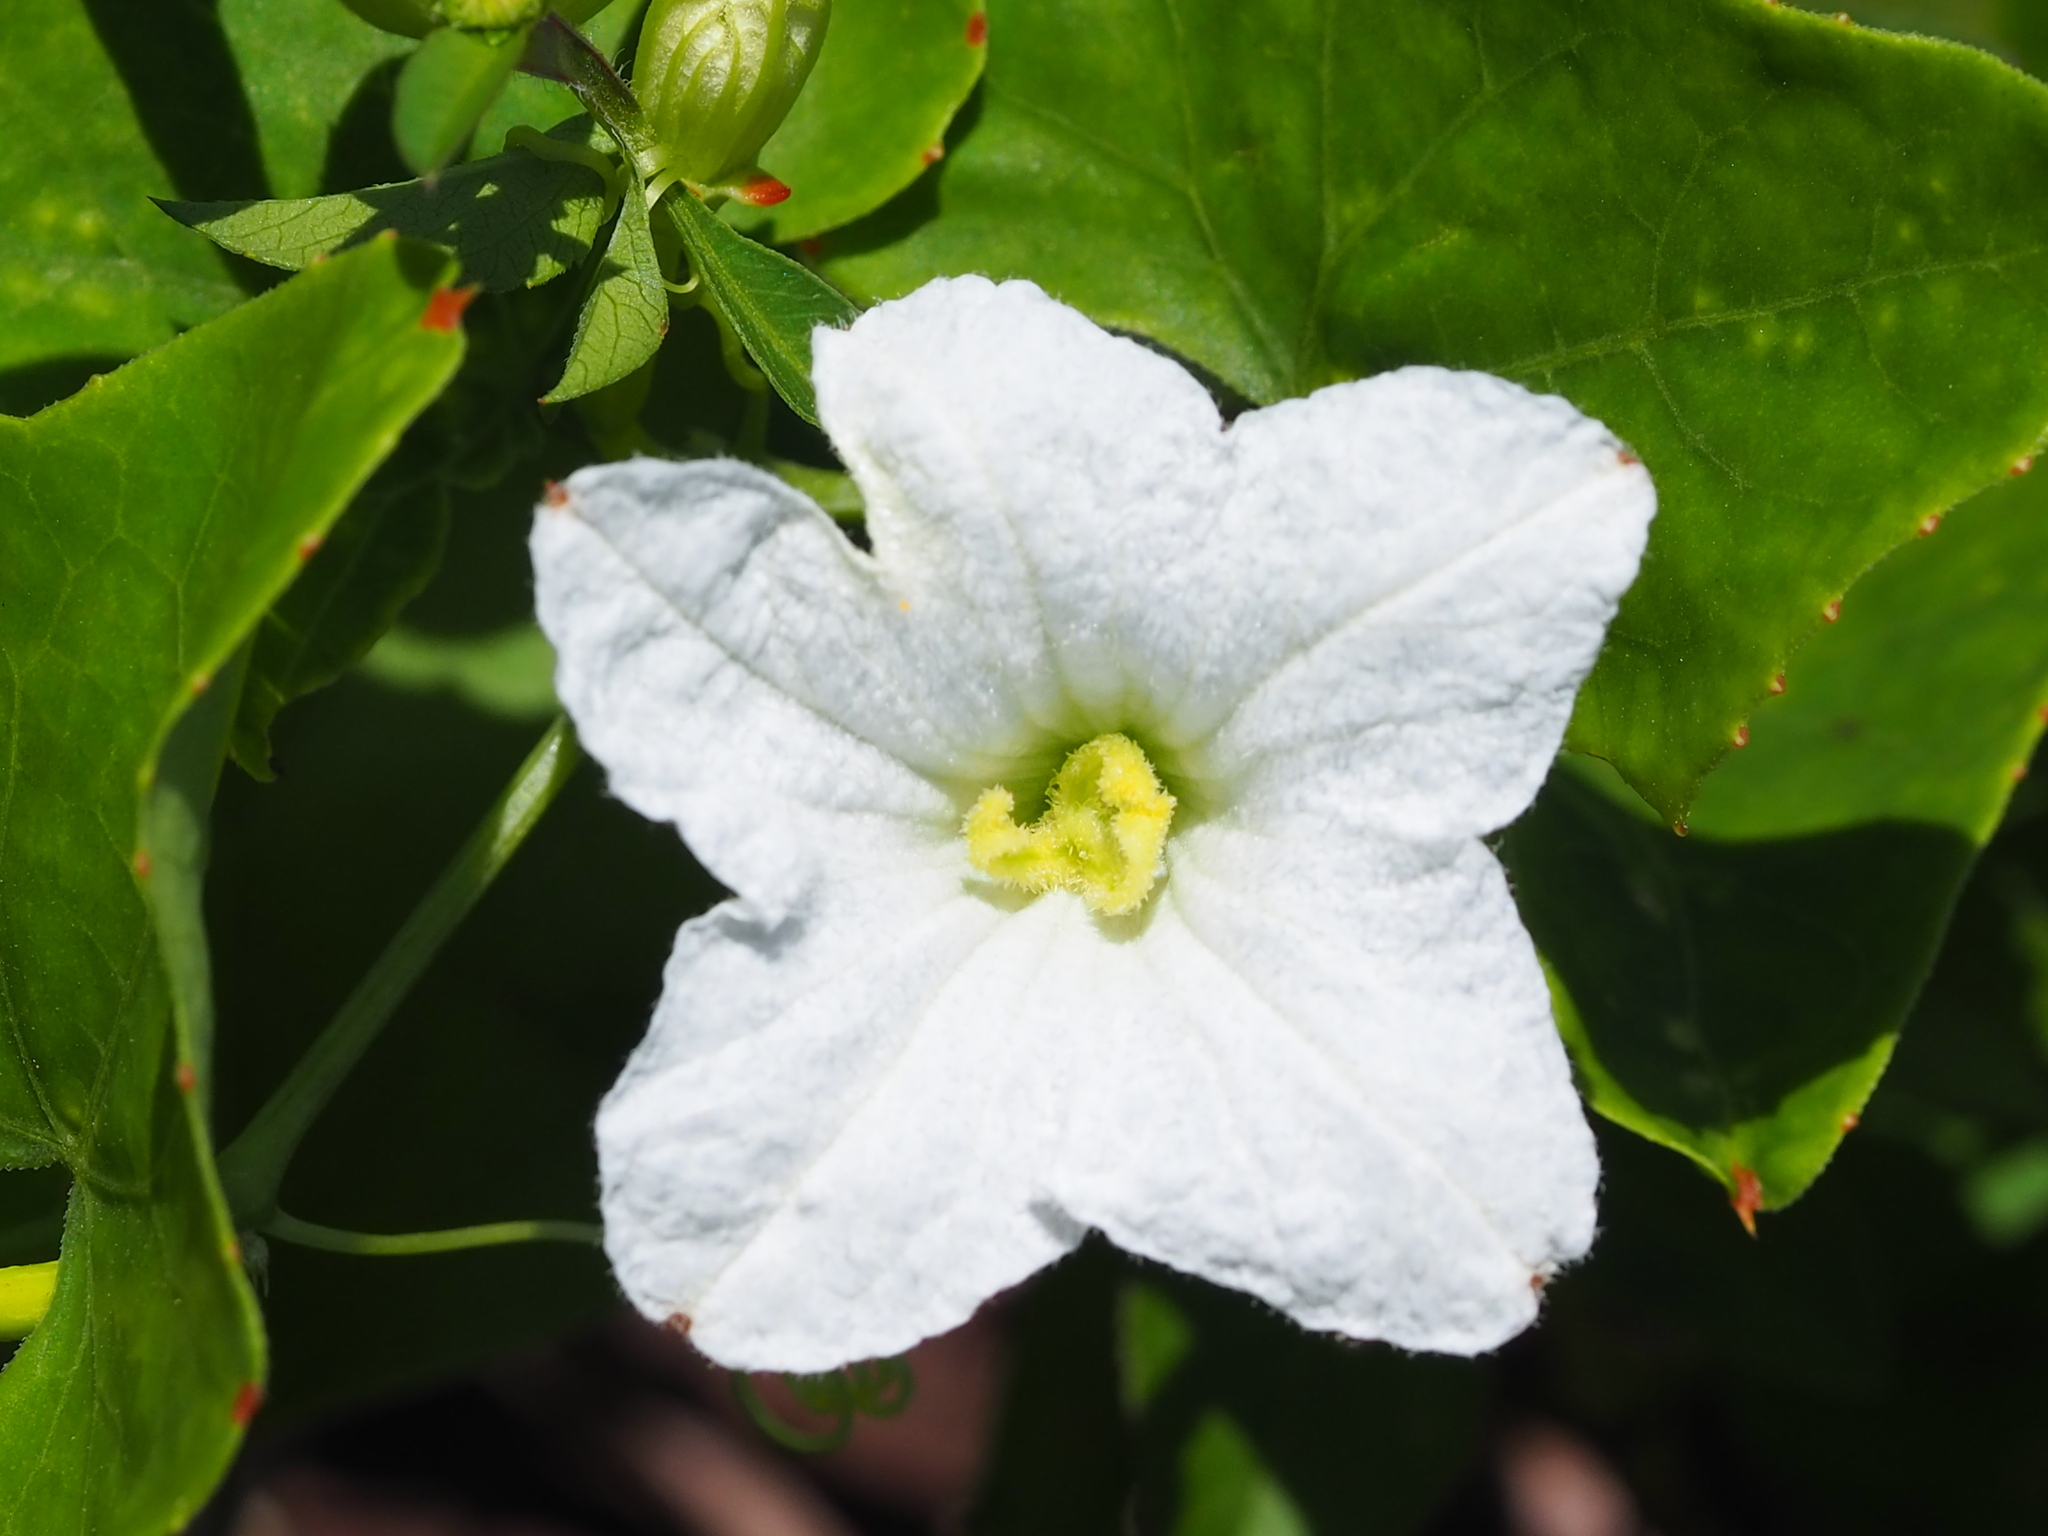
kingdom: Plantae
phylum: Tracheophyta
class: Magnoliopsida
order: Cucurbitales
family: Cucurbitaceae
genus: Coccinia
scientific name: Coccinia grandis
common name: Ivy gourd
